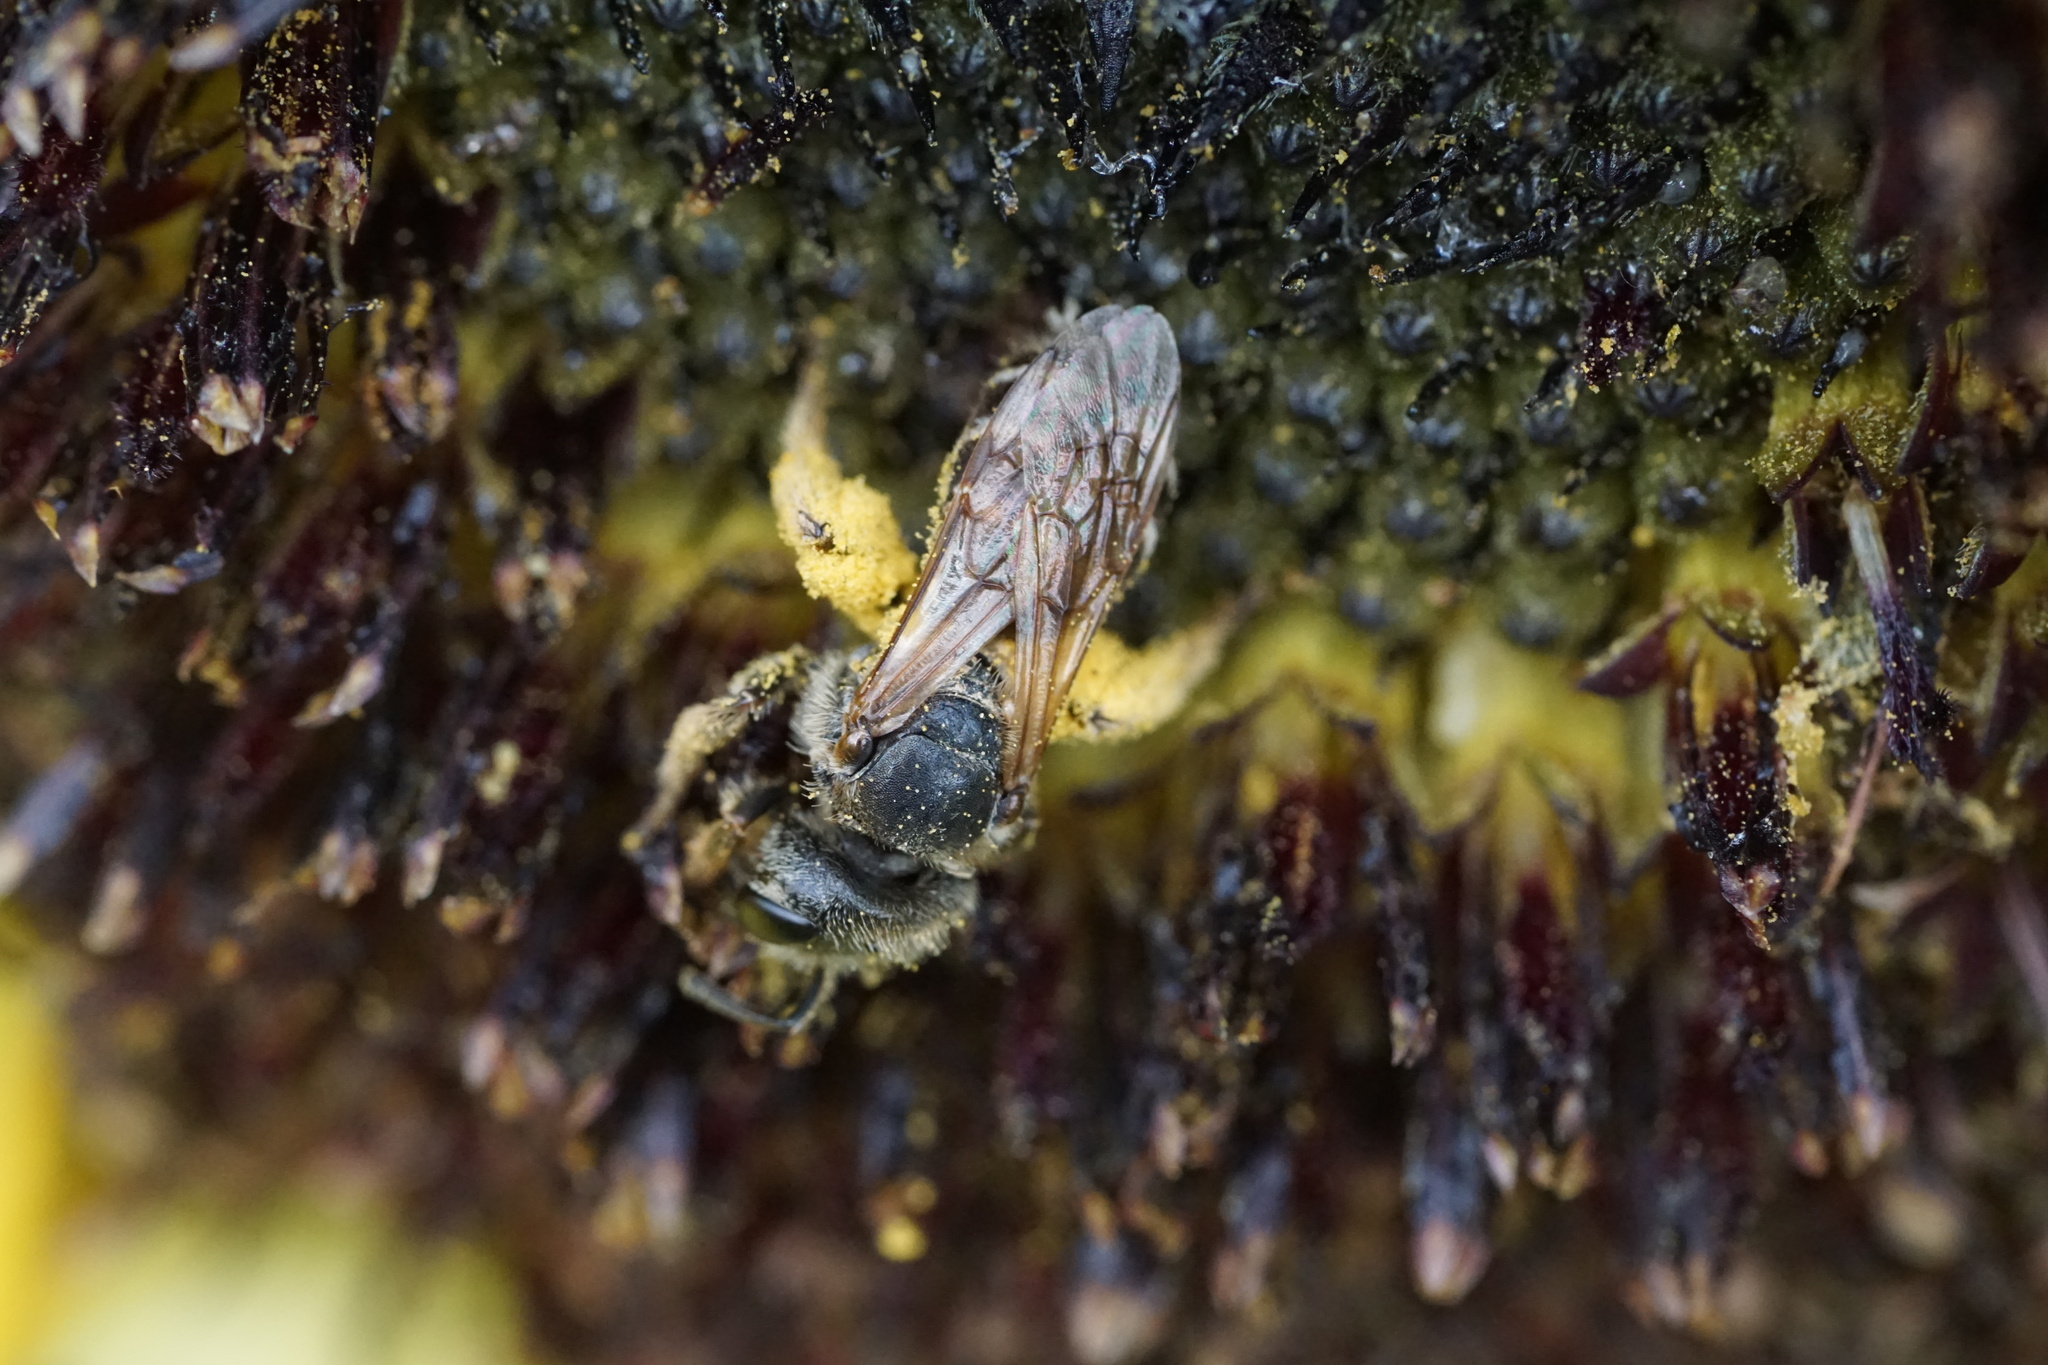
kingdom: Animalia
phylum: Arthropoda
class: Insecta
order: Hymenoptera
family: Halictidae
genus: Halictus
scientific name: Halictus ligatus
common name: Ligated furrow bee
